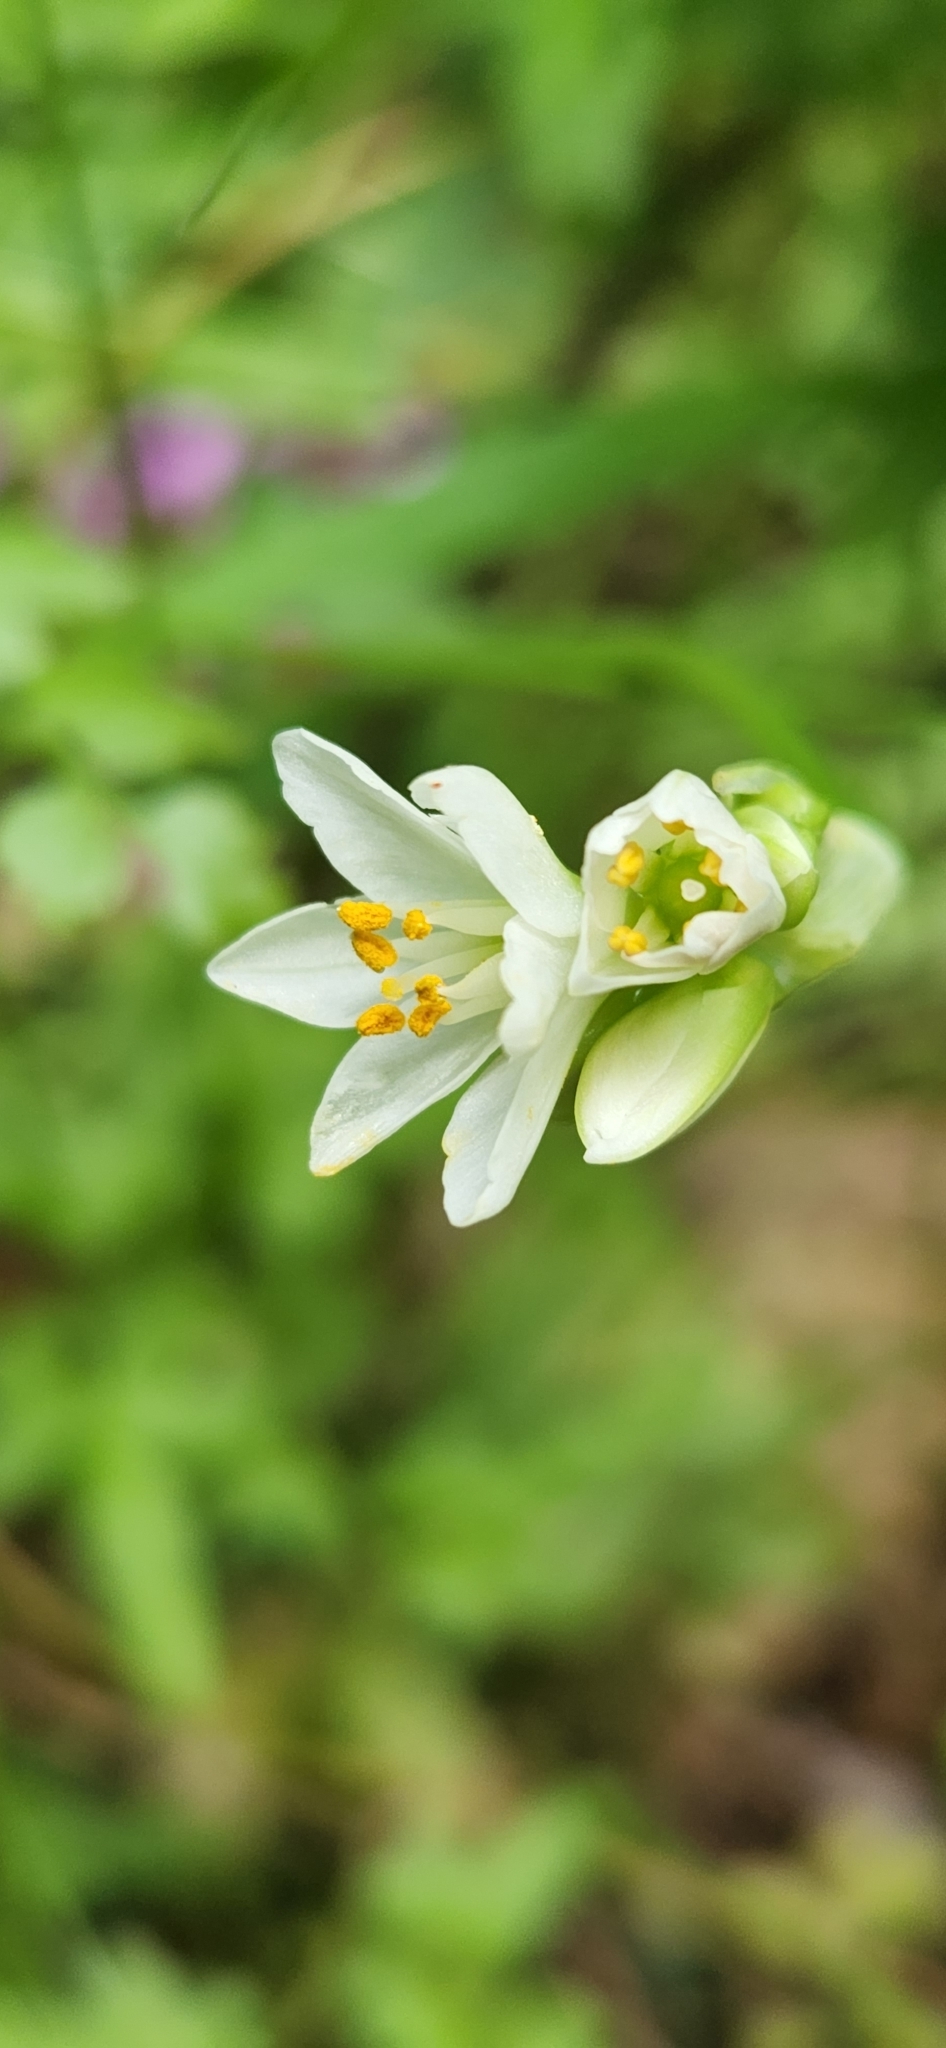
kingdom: Plantae
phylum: Tracheophyta
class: Liliopsida
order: Asparagales
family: Amaryllidaceae
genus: Nothoscordum
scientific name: Nothoscordum gracile
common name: Slender false garlic
